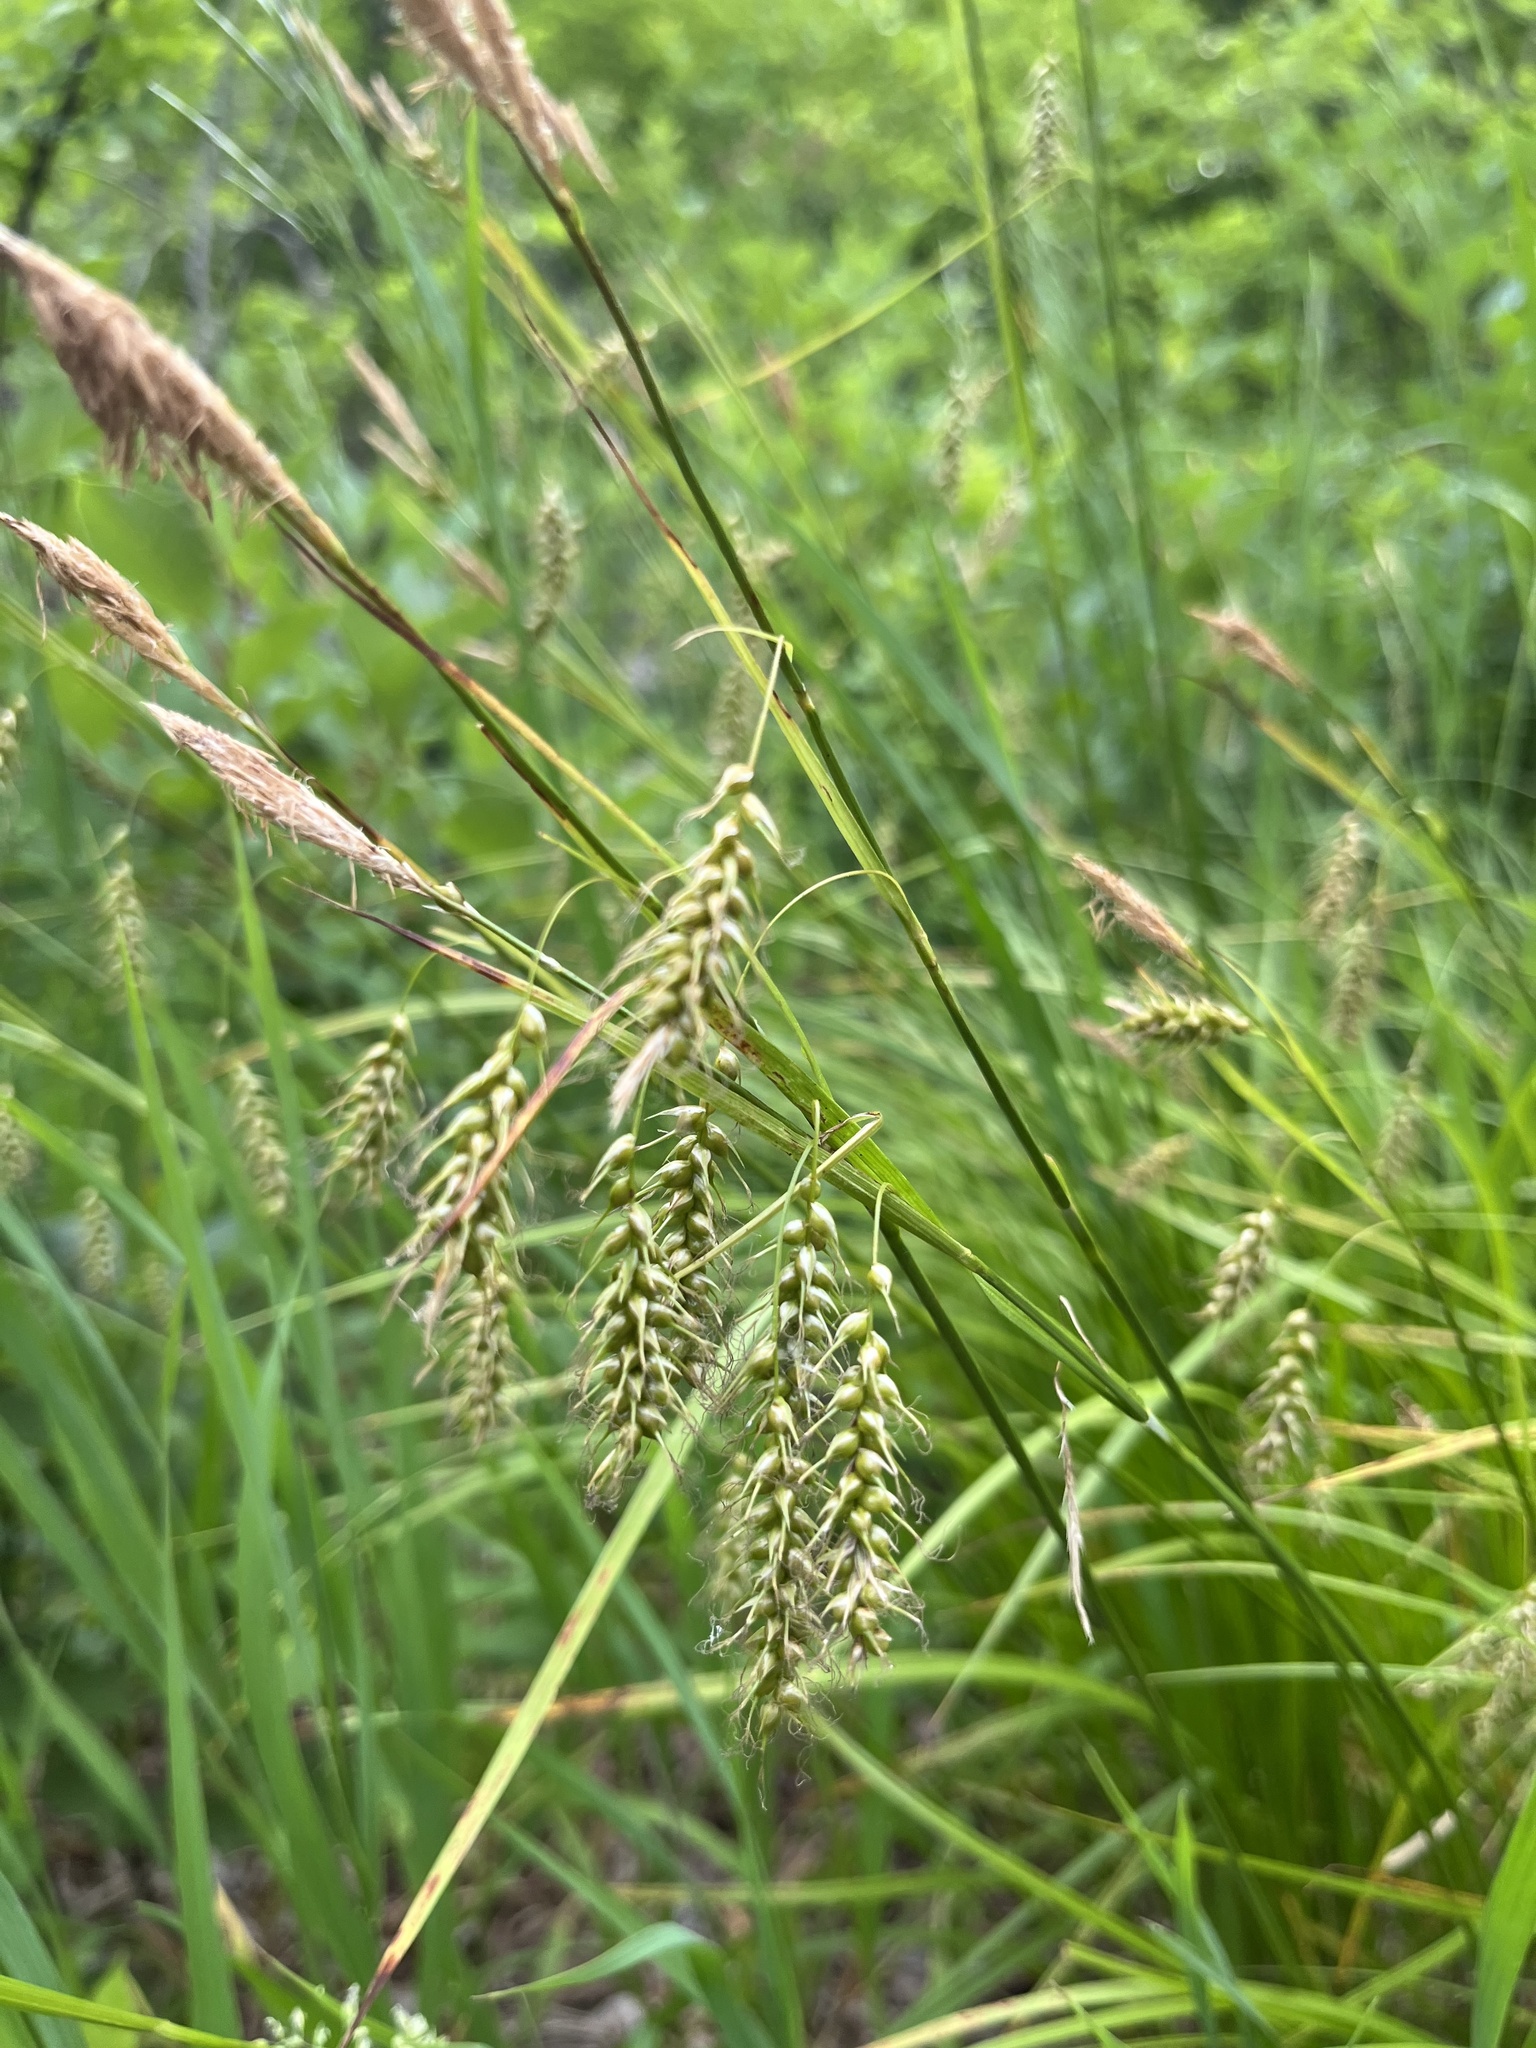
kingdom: Plantae
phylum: Tracheophyta
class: Liliopsida
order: Poales
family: Cyperaceae
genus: Carex
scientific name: Carex sprengelii
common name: Long-beaked sedge
